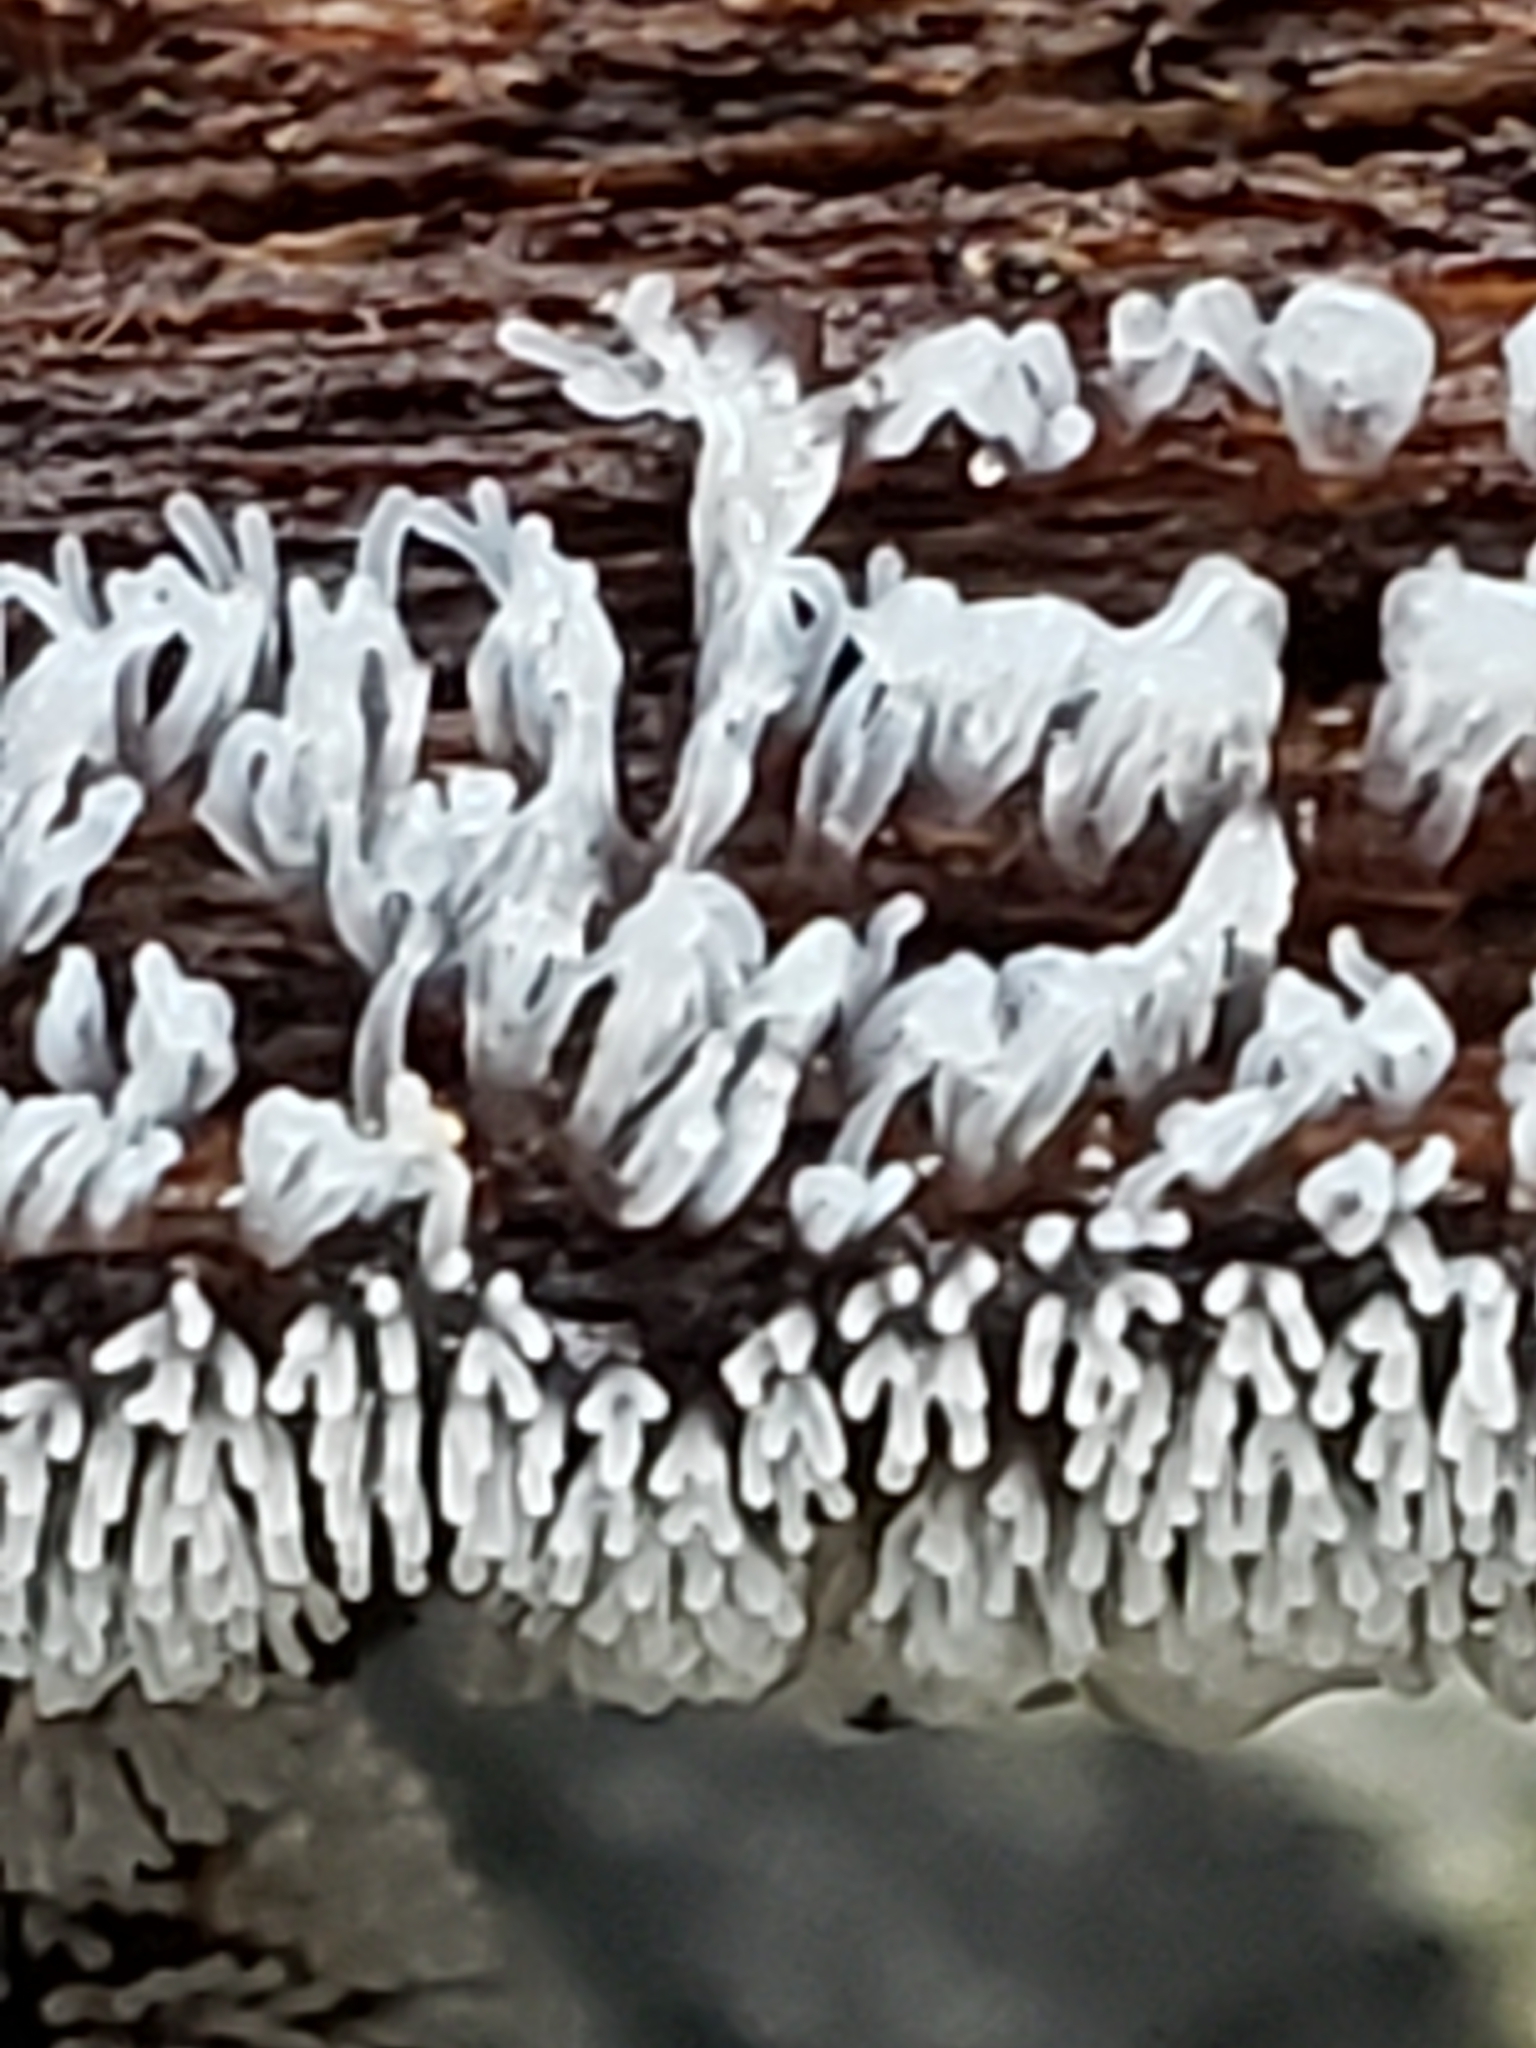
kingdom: Protozoa
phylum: Mycetozoa
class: Protosteliomycetes
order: Ceratiomyxales
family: Ceratiomyxaceae
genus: Ceratiomyxa
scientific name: Ceratiomyxa fruticulosa
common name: Honeycomb coral slime mold
